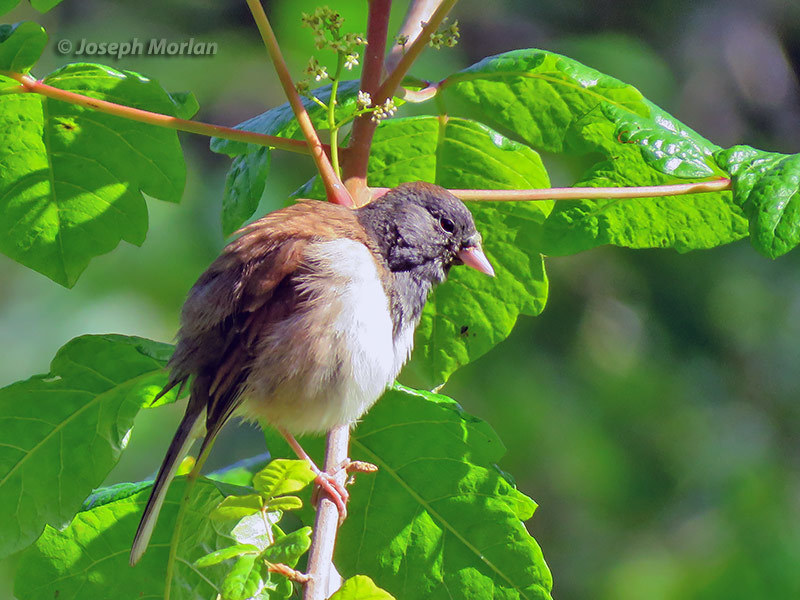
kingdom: Animalia
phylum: Chordata
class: Aves
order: Passeriformes
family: Passerellidae
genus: Junco
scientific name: Junco hyemalis
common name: Dark-eyed junco
